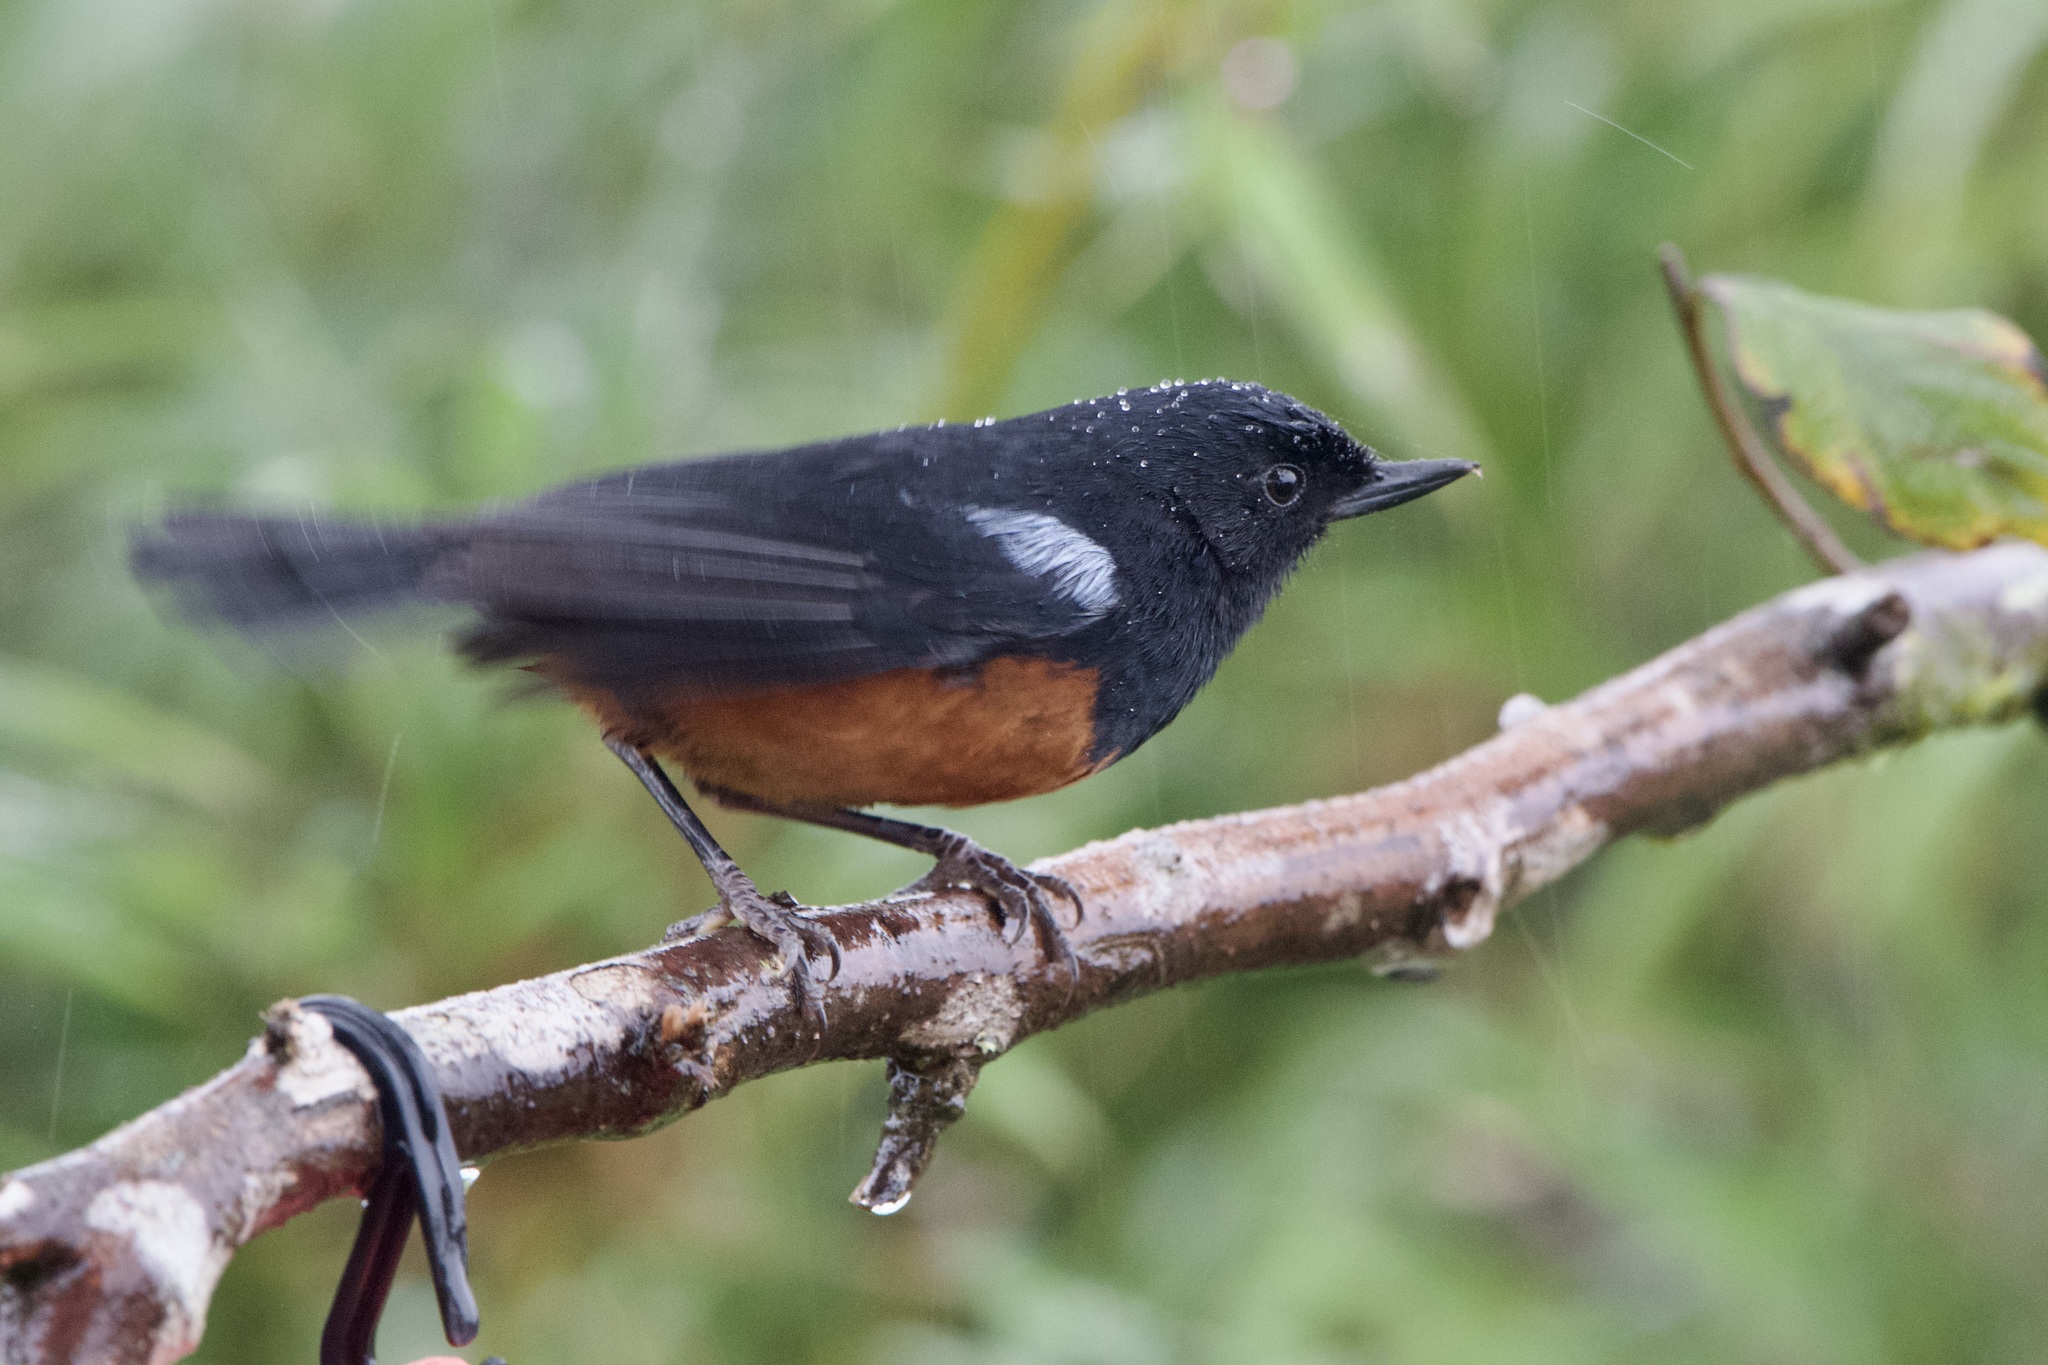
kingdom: Animalia
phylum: Chordata
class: Aves
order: Passeriformes
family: Thraupidae
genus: Diglossa
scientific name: Diglossa gloriosissima
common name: Chestnut-bellied flowerpiercer
